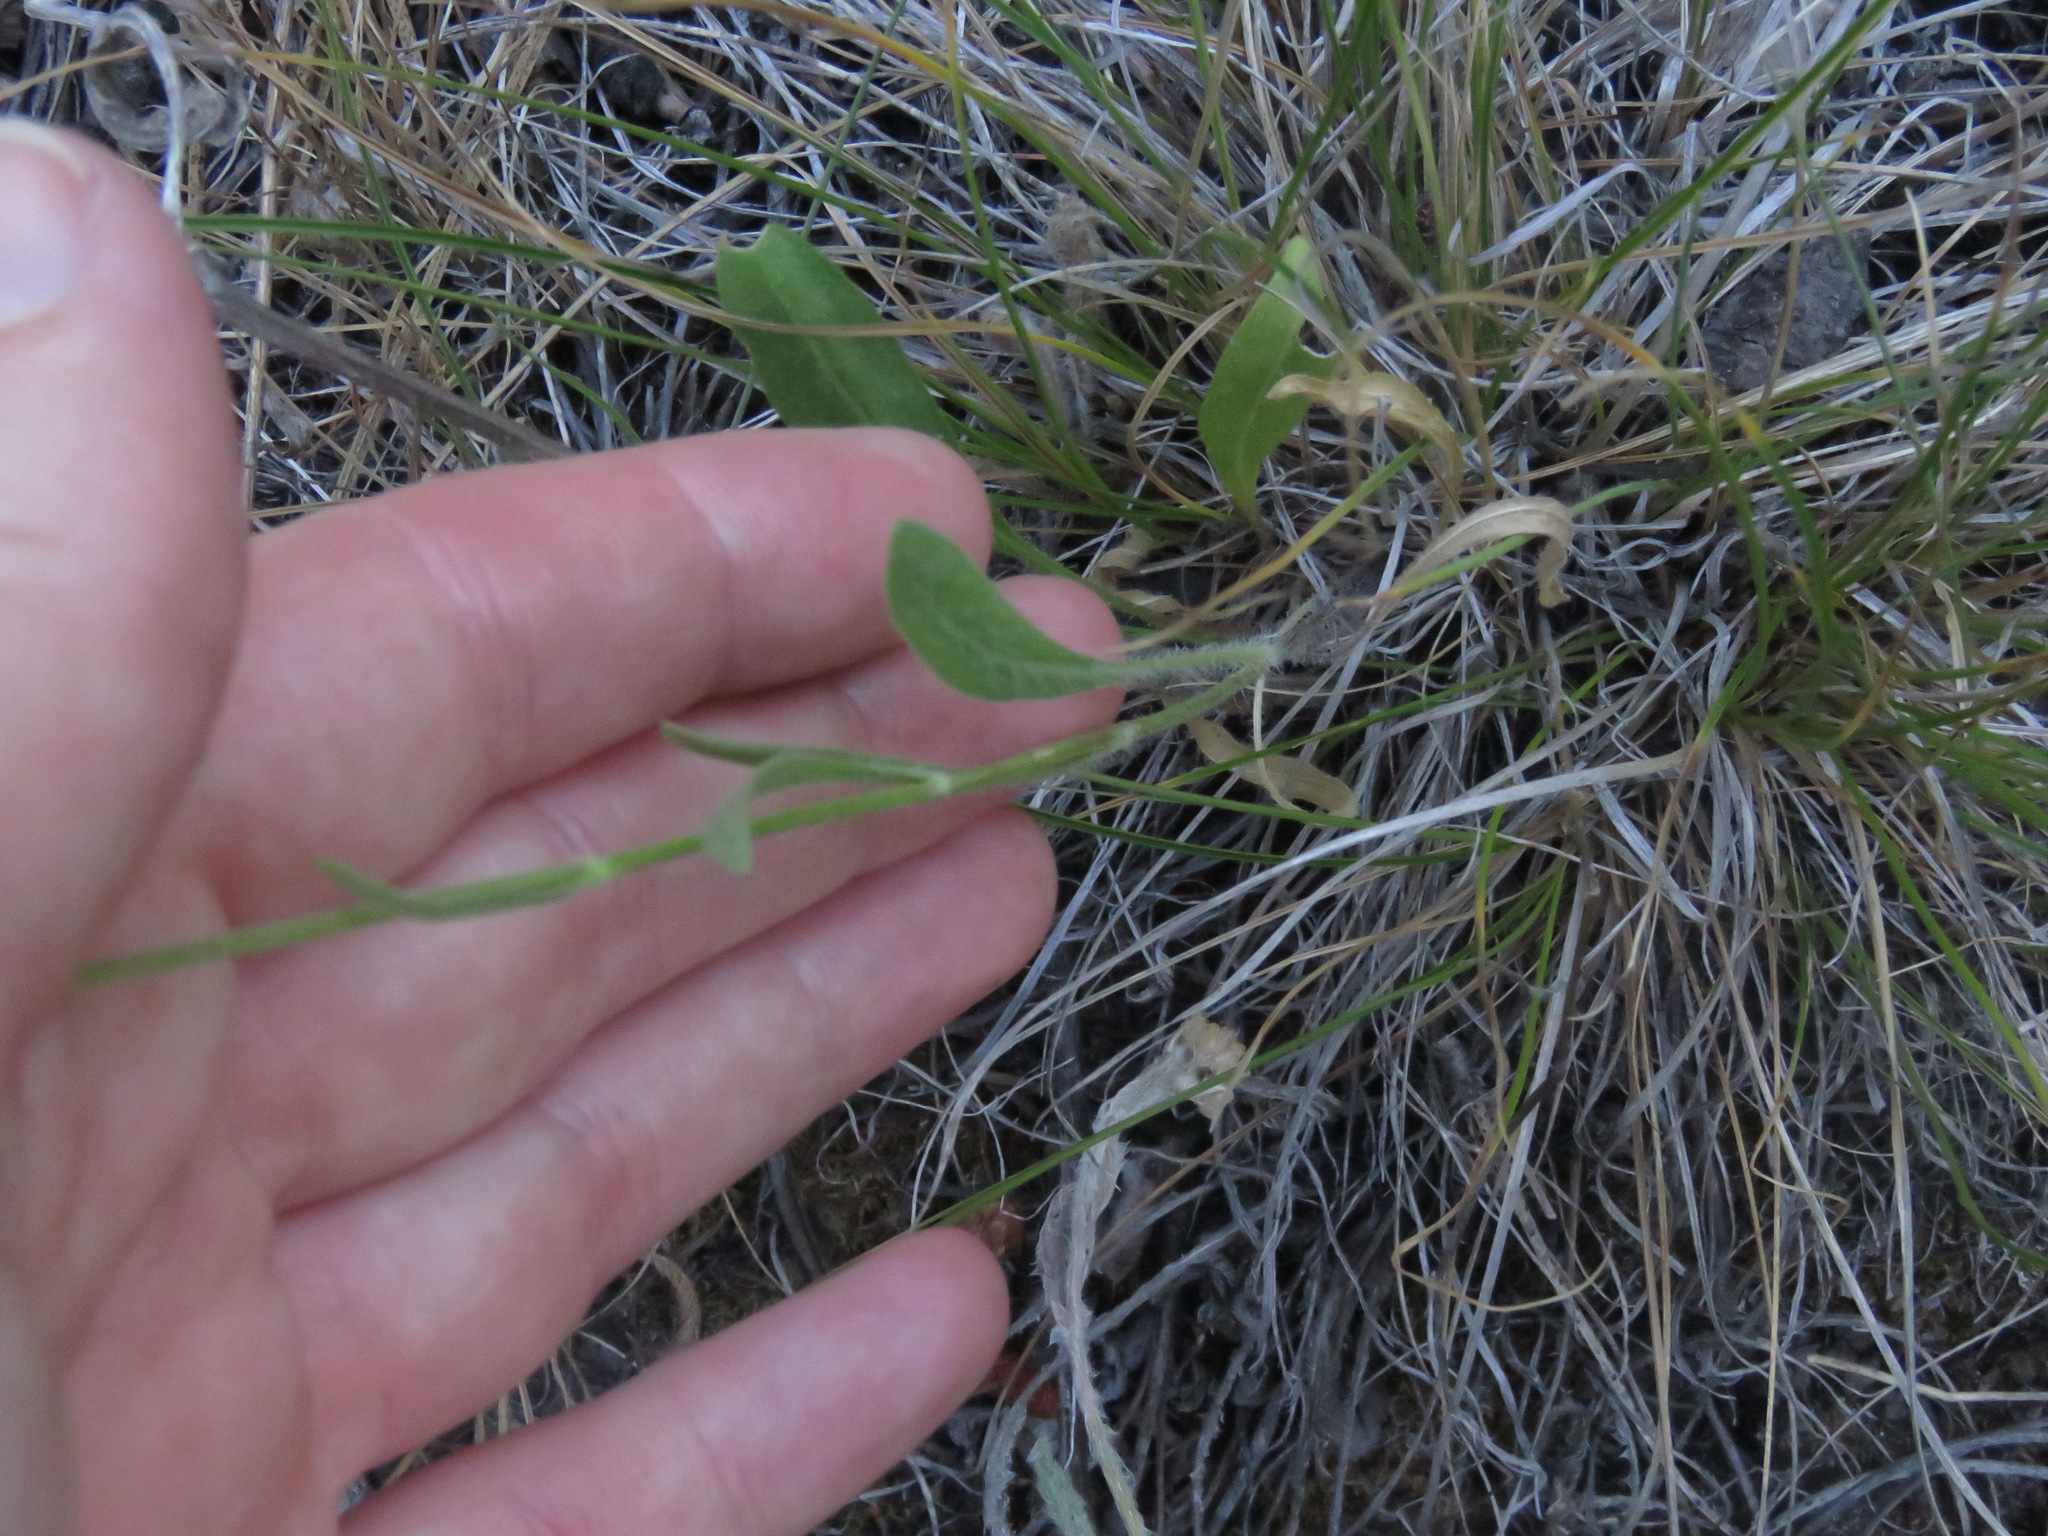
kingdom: Plantae
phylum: Tracheophyta
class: Magnoliopsida
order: Asterales
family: Asteraceae
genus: Gaillardia
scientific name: Gaillardia aristata
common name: Blanket-flower
